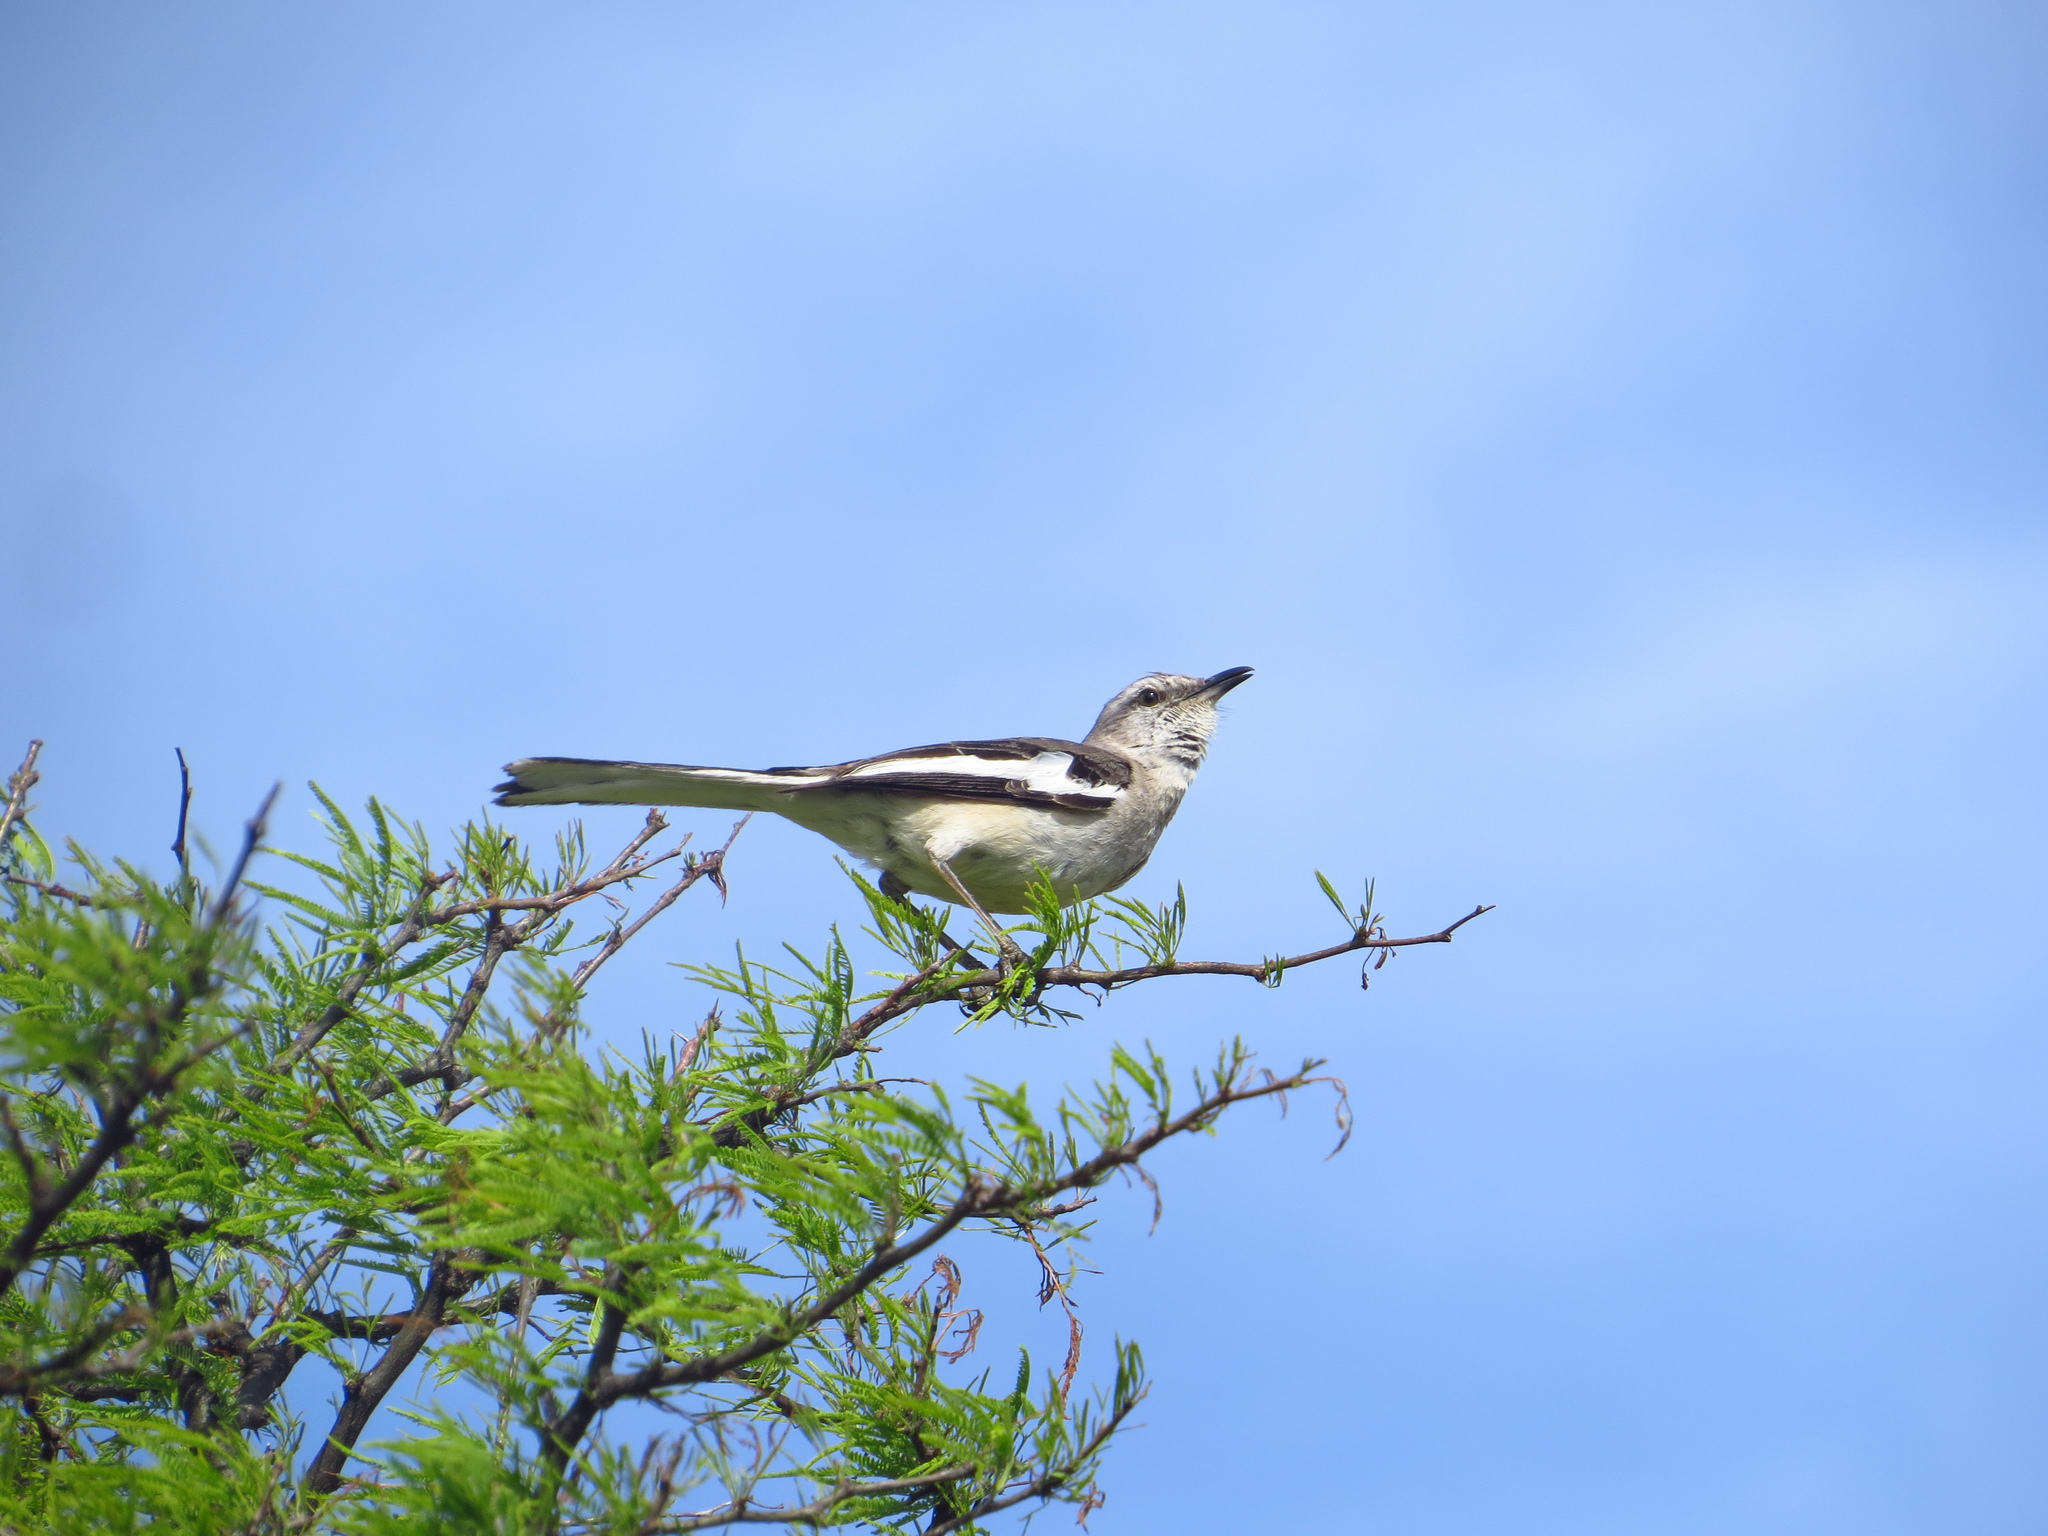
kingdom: Animalia
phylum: Chordata
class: Aves
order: Passeriformes
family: Mimidae
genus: Mimus
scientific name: Mimus triurus
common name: White-banded mockingbird
